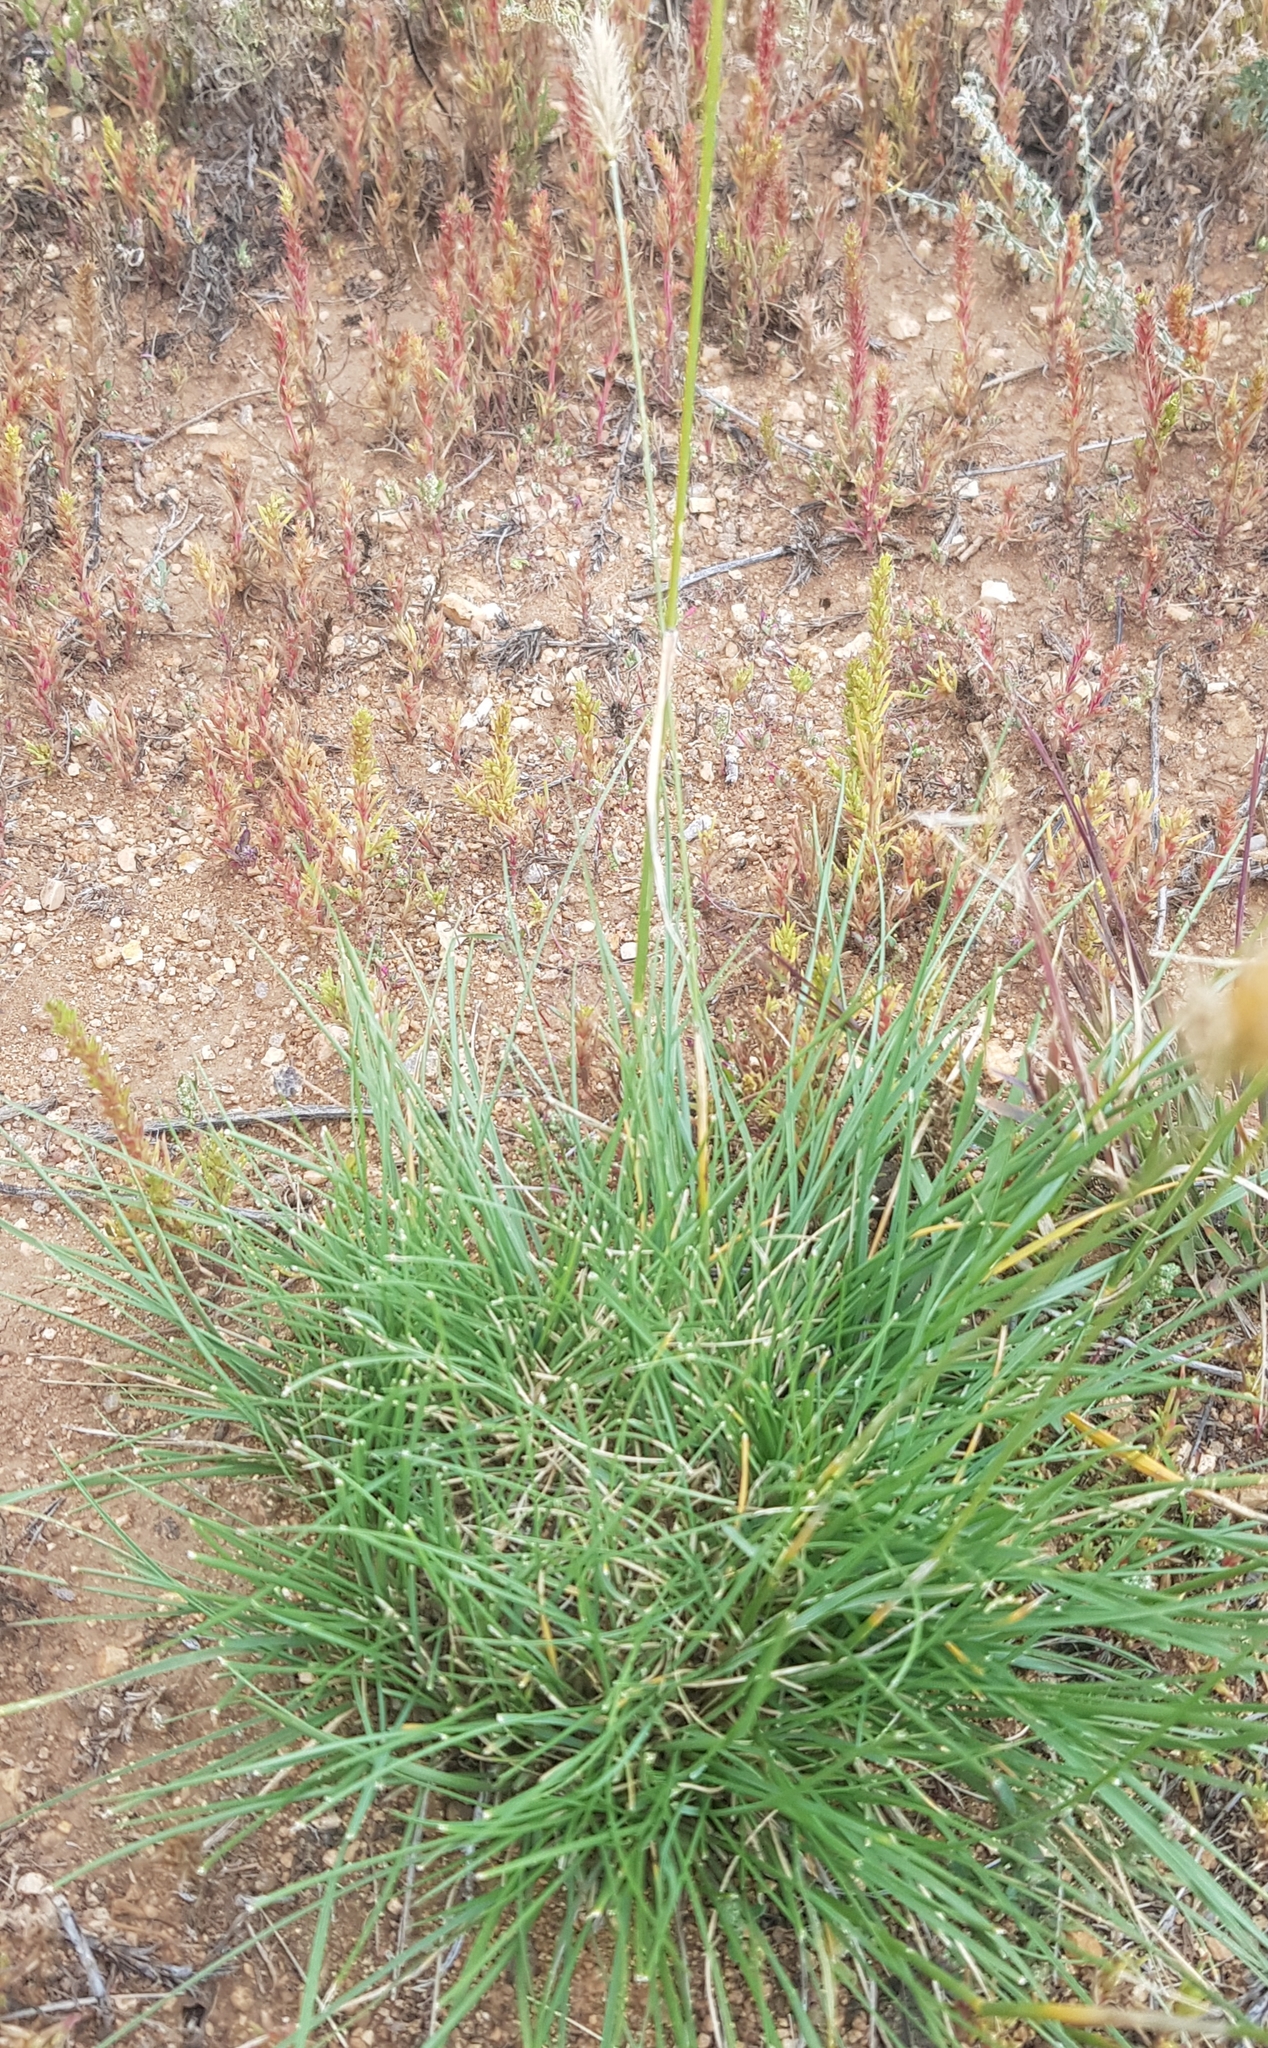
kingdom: Plantae
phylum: Tracheophyta
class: Liliopsida
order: Poales
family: Poaceae
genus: Agropyron
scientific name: Agropyron cristatum
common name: Crested wheatgrass
